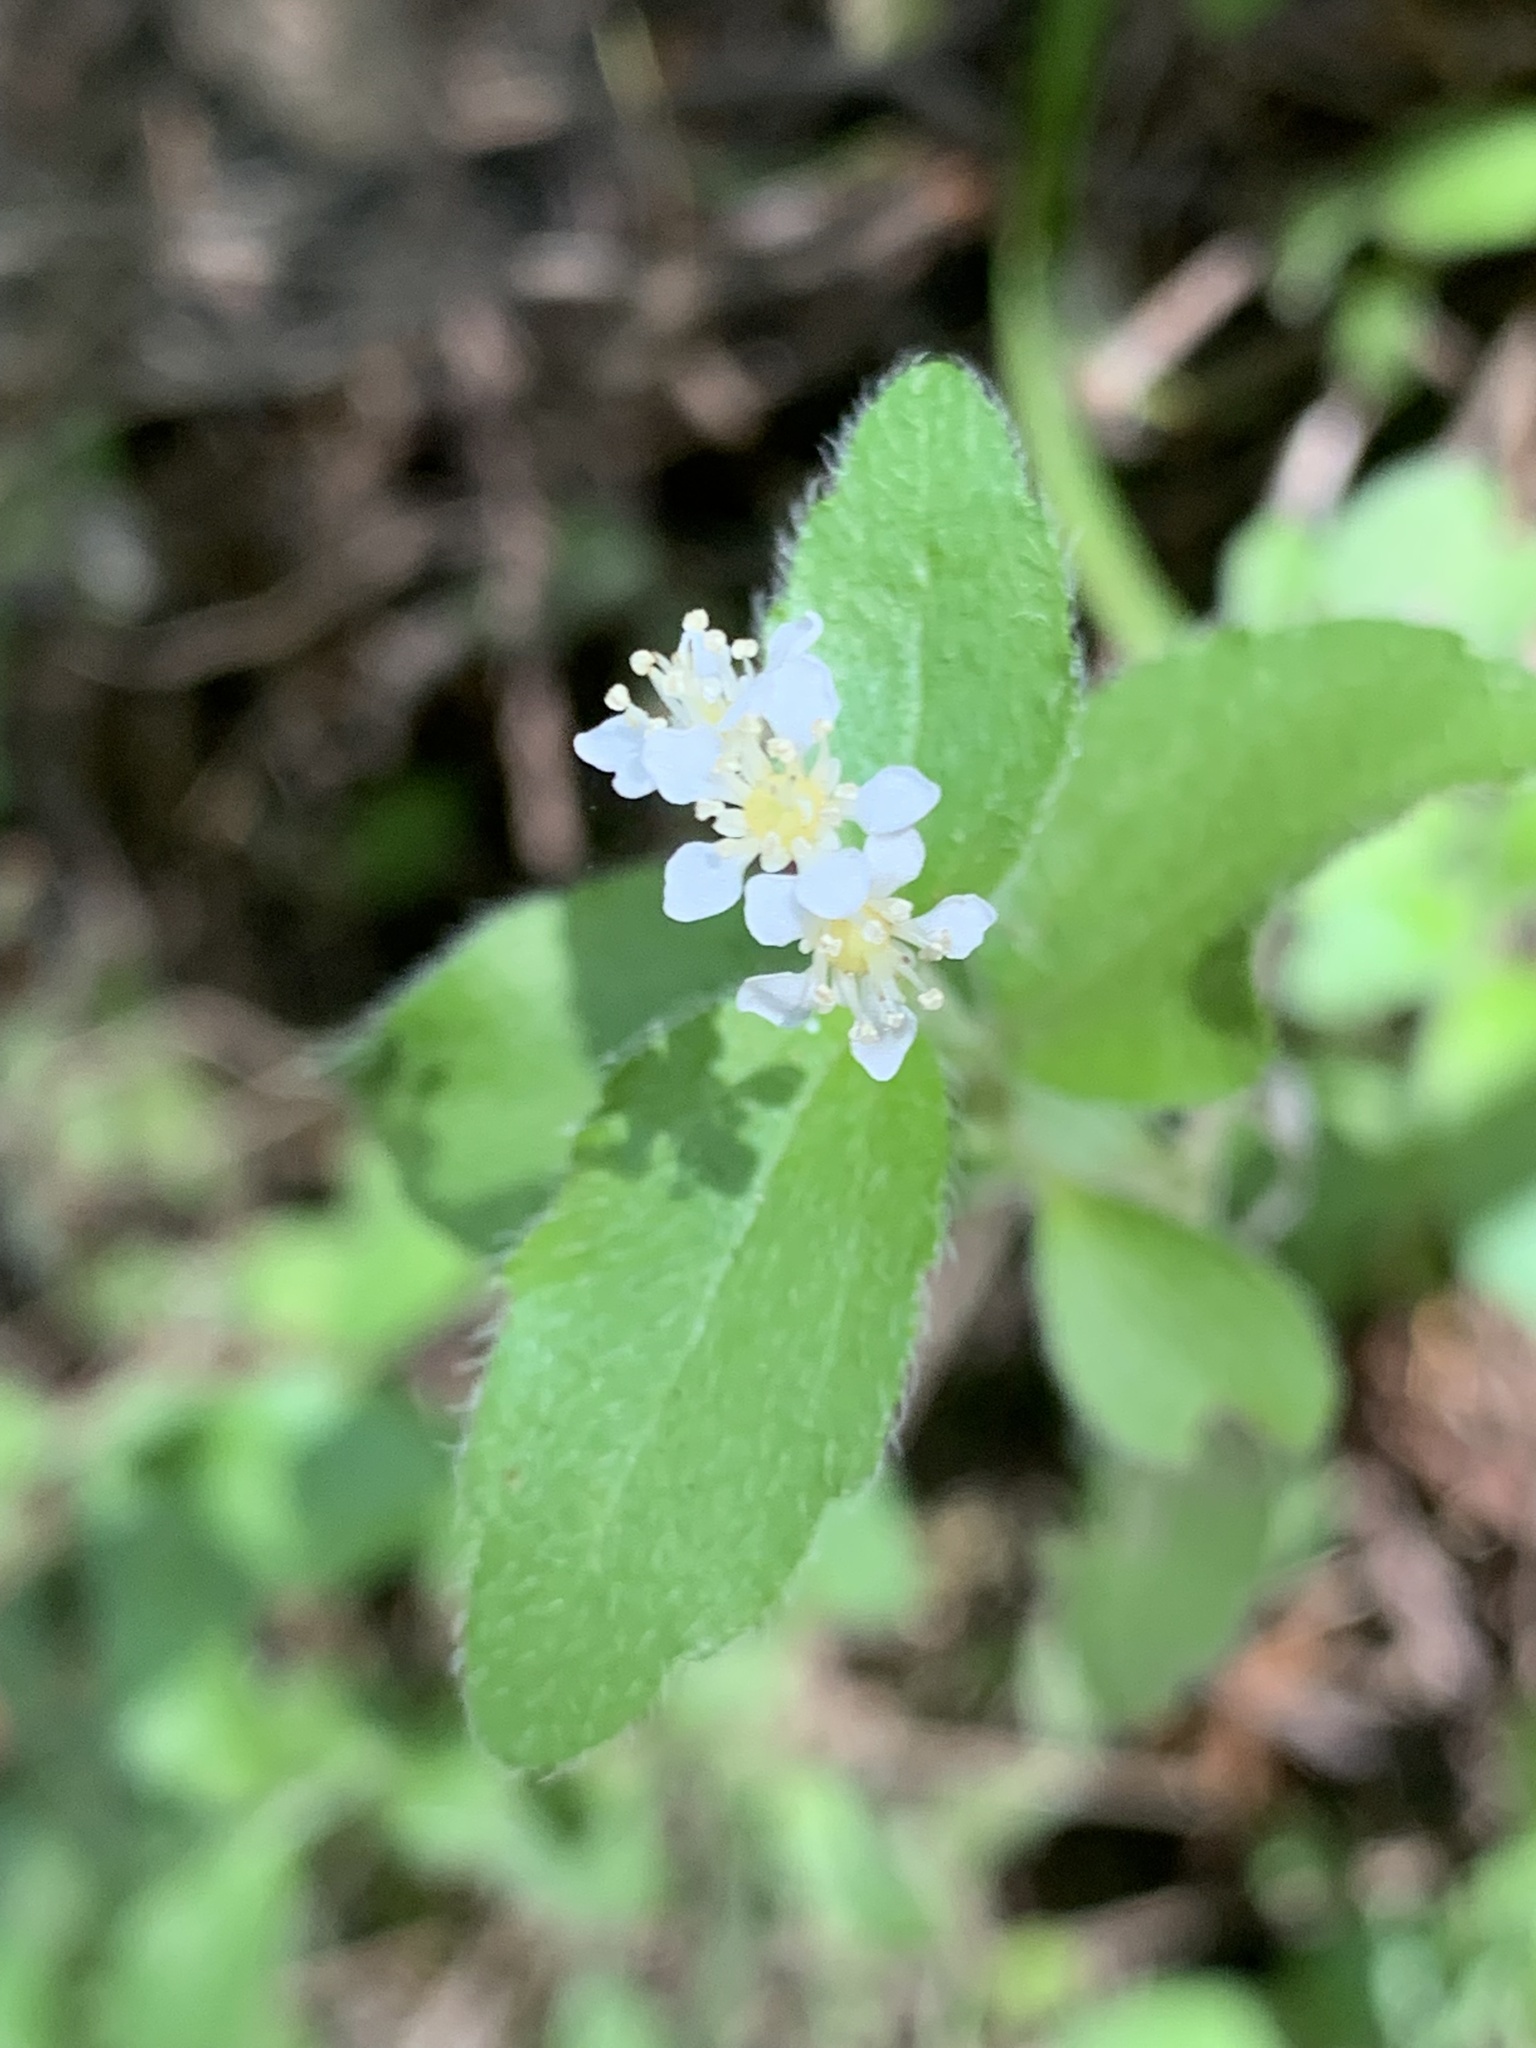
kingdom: Plantae
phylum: Tracheophyta
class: Magnoliopsida
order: Cornales
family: Hydrangeaceae
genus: Whipplea
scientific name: Whipplea modesta
